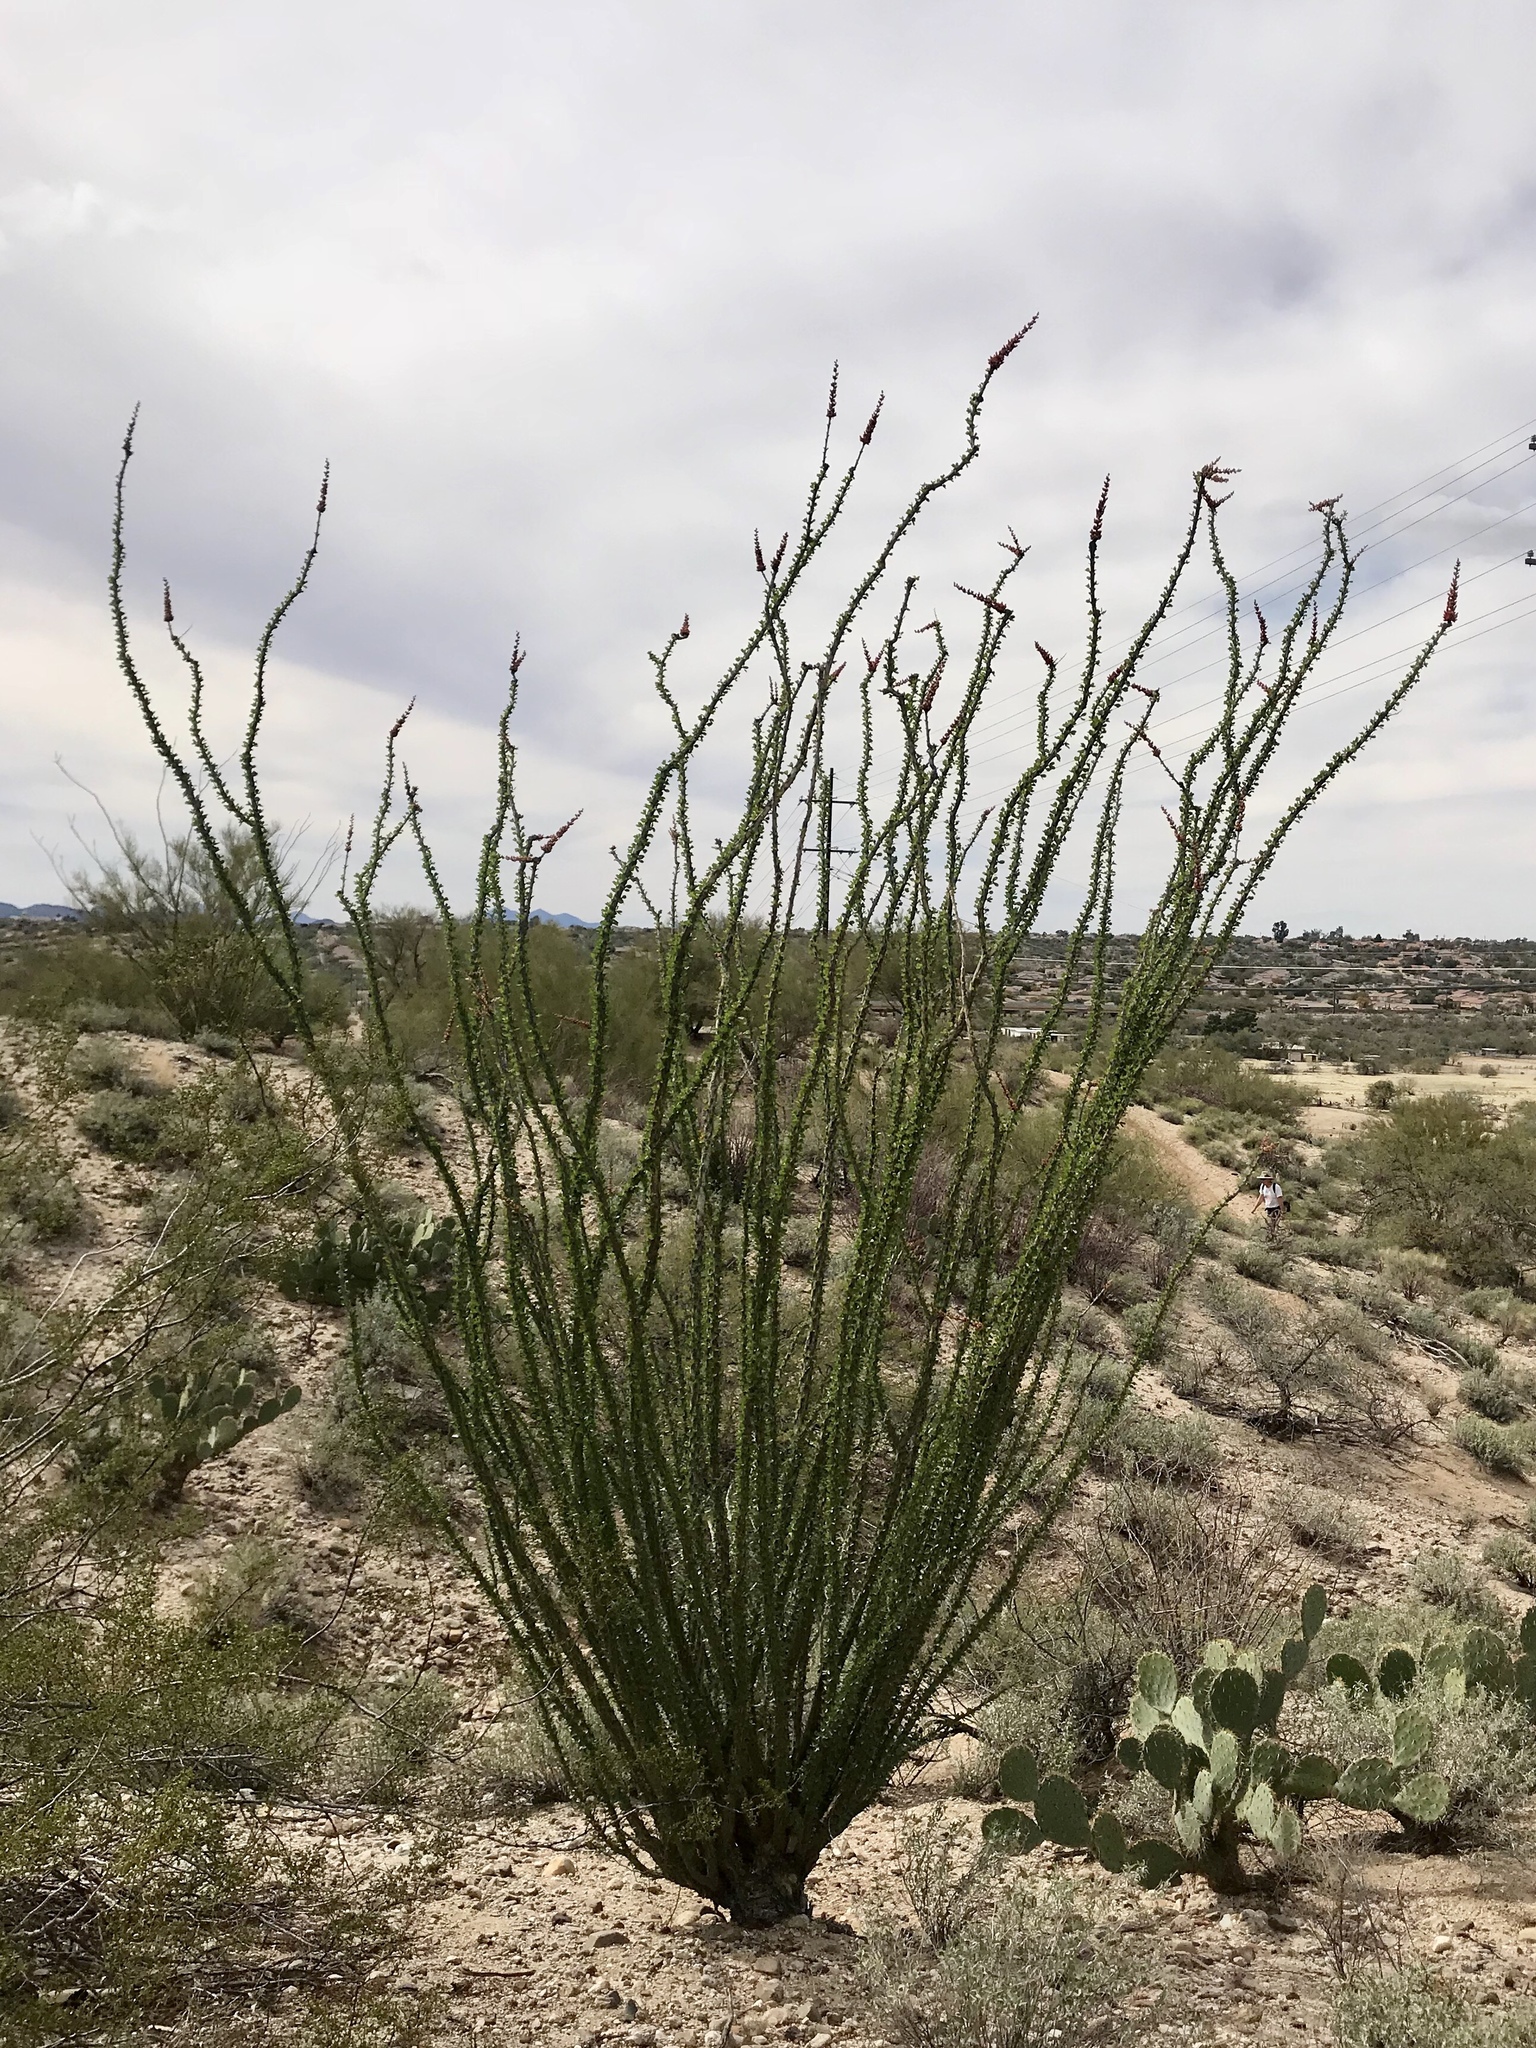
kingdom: Plantae
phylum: Tracheophyta
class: Magnoliopsida
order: Ericales
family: Fouquieriaceae
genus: Fouquieria
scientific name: Fouquieria splendens
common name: Vine-cactus
